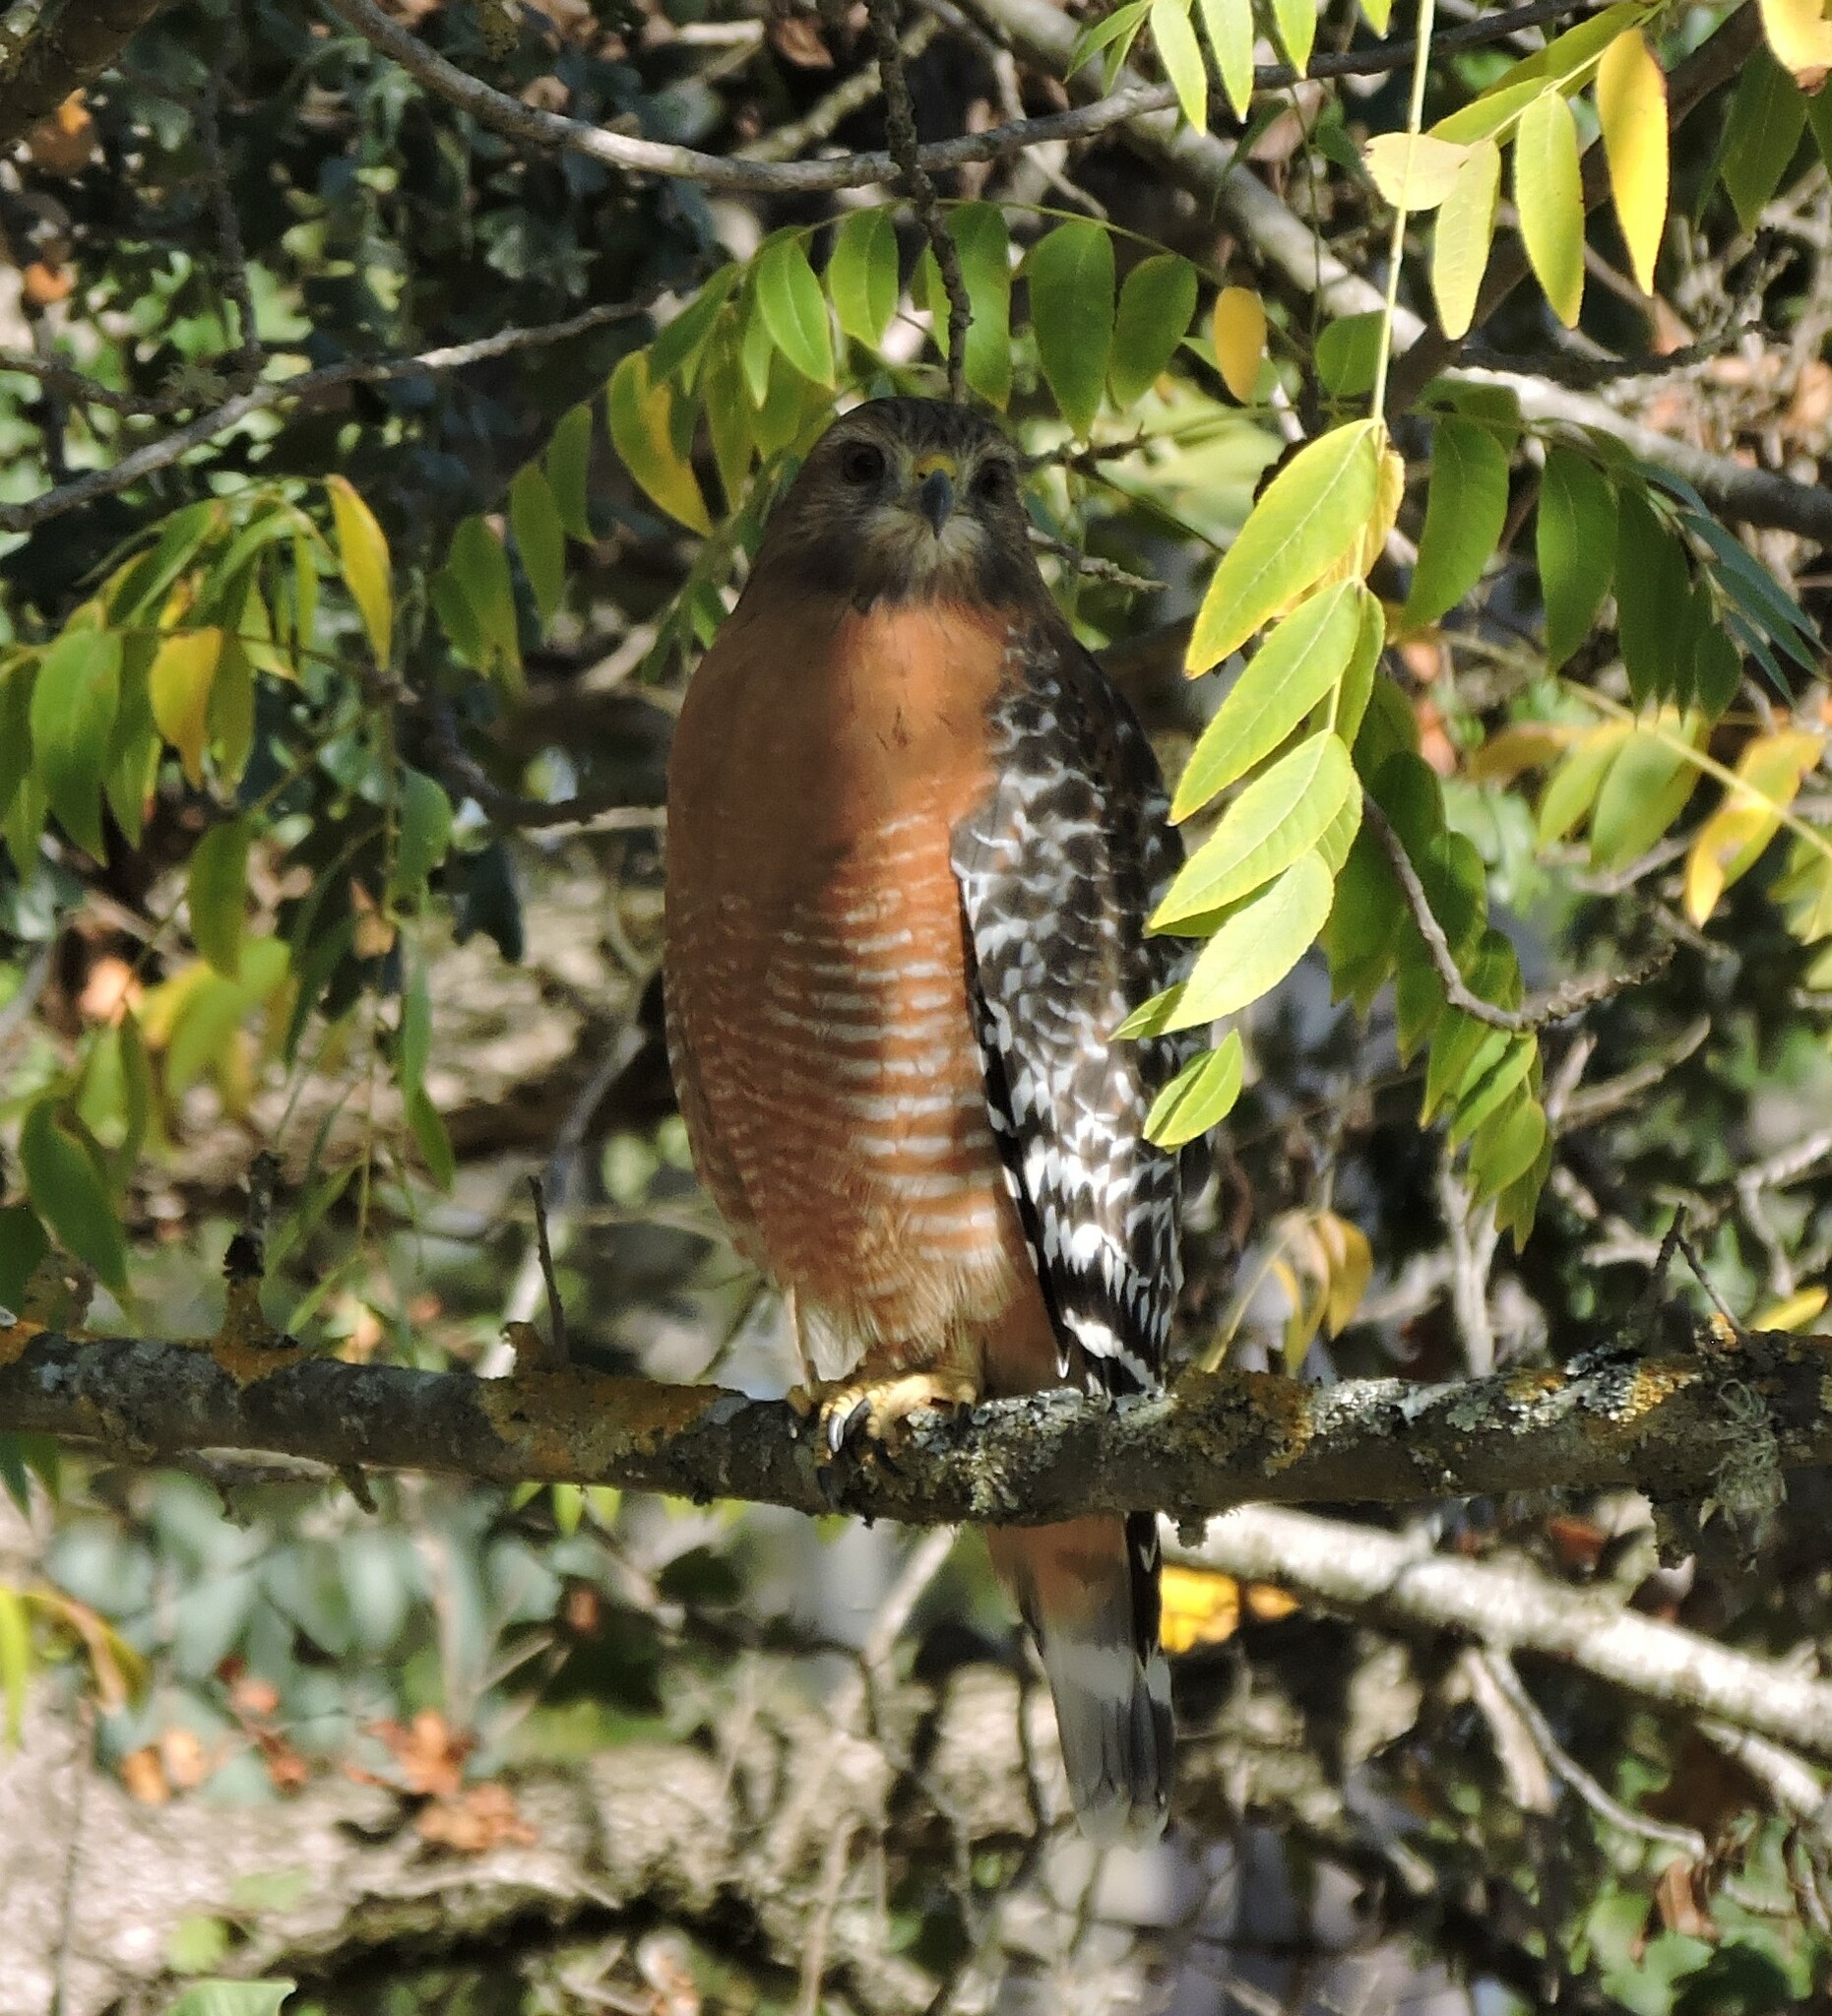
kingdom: Animalia
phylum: Chordata
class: Aves
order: Accipitriformes
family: Accipitridae
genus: Buteo
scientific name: Buteo lineatus
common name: Red-shouldered hawk
